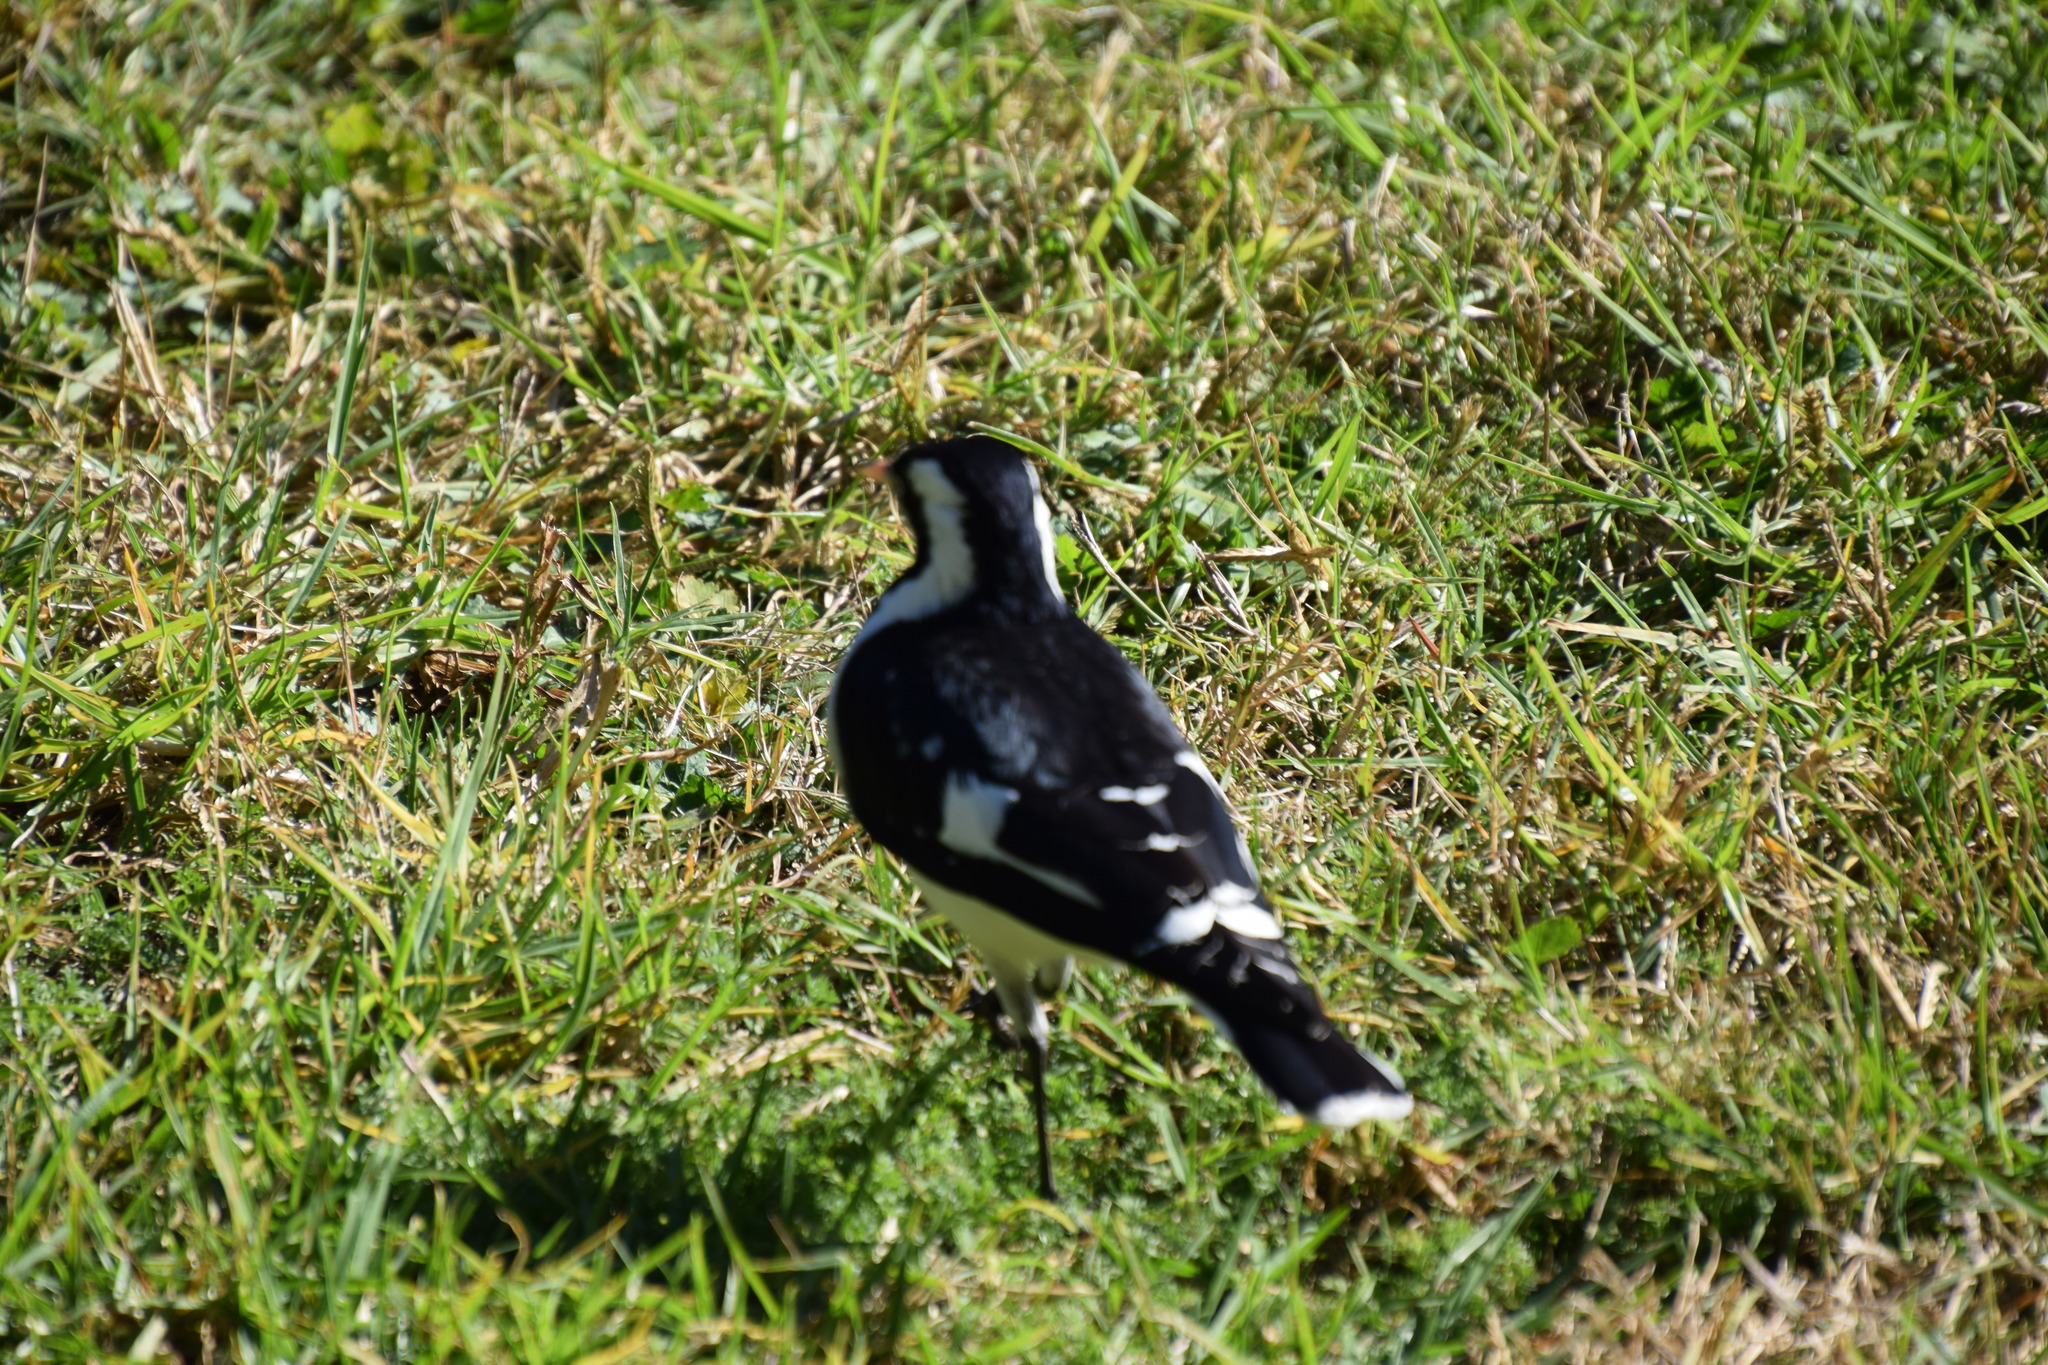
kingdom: Animalia
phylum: Chordata
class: Aves
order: Passeriformes
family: Monarchidae
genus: Grallina
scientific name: Grallina cyanoleuca
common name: Magpie-lark
